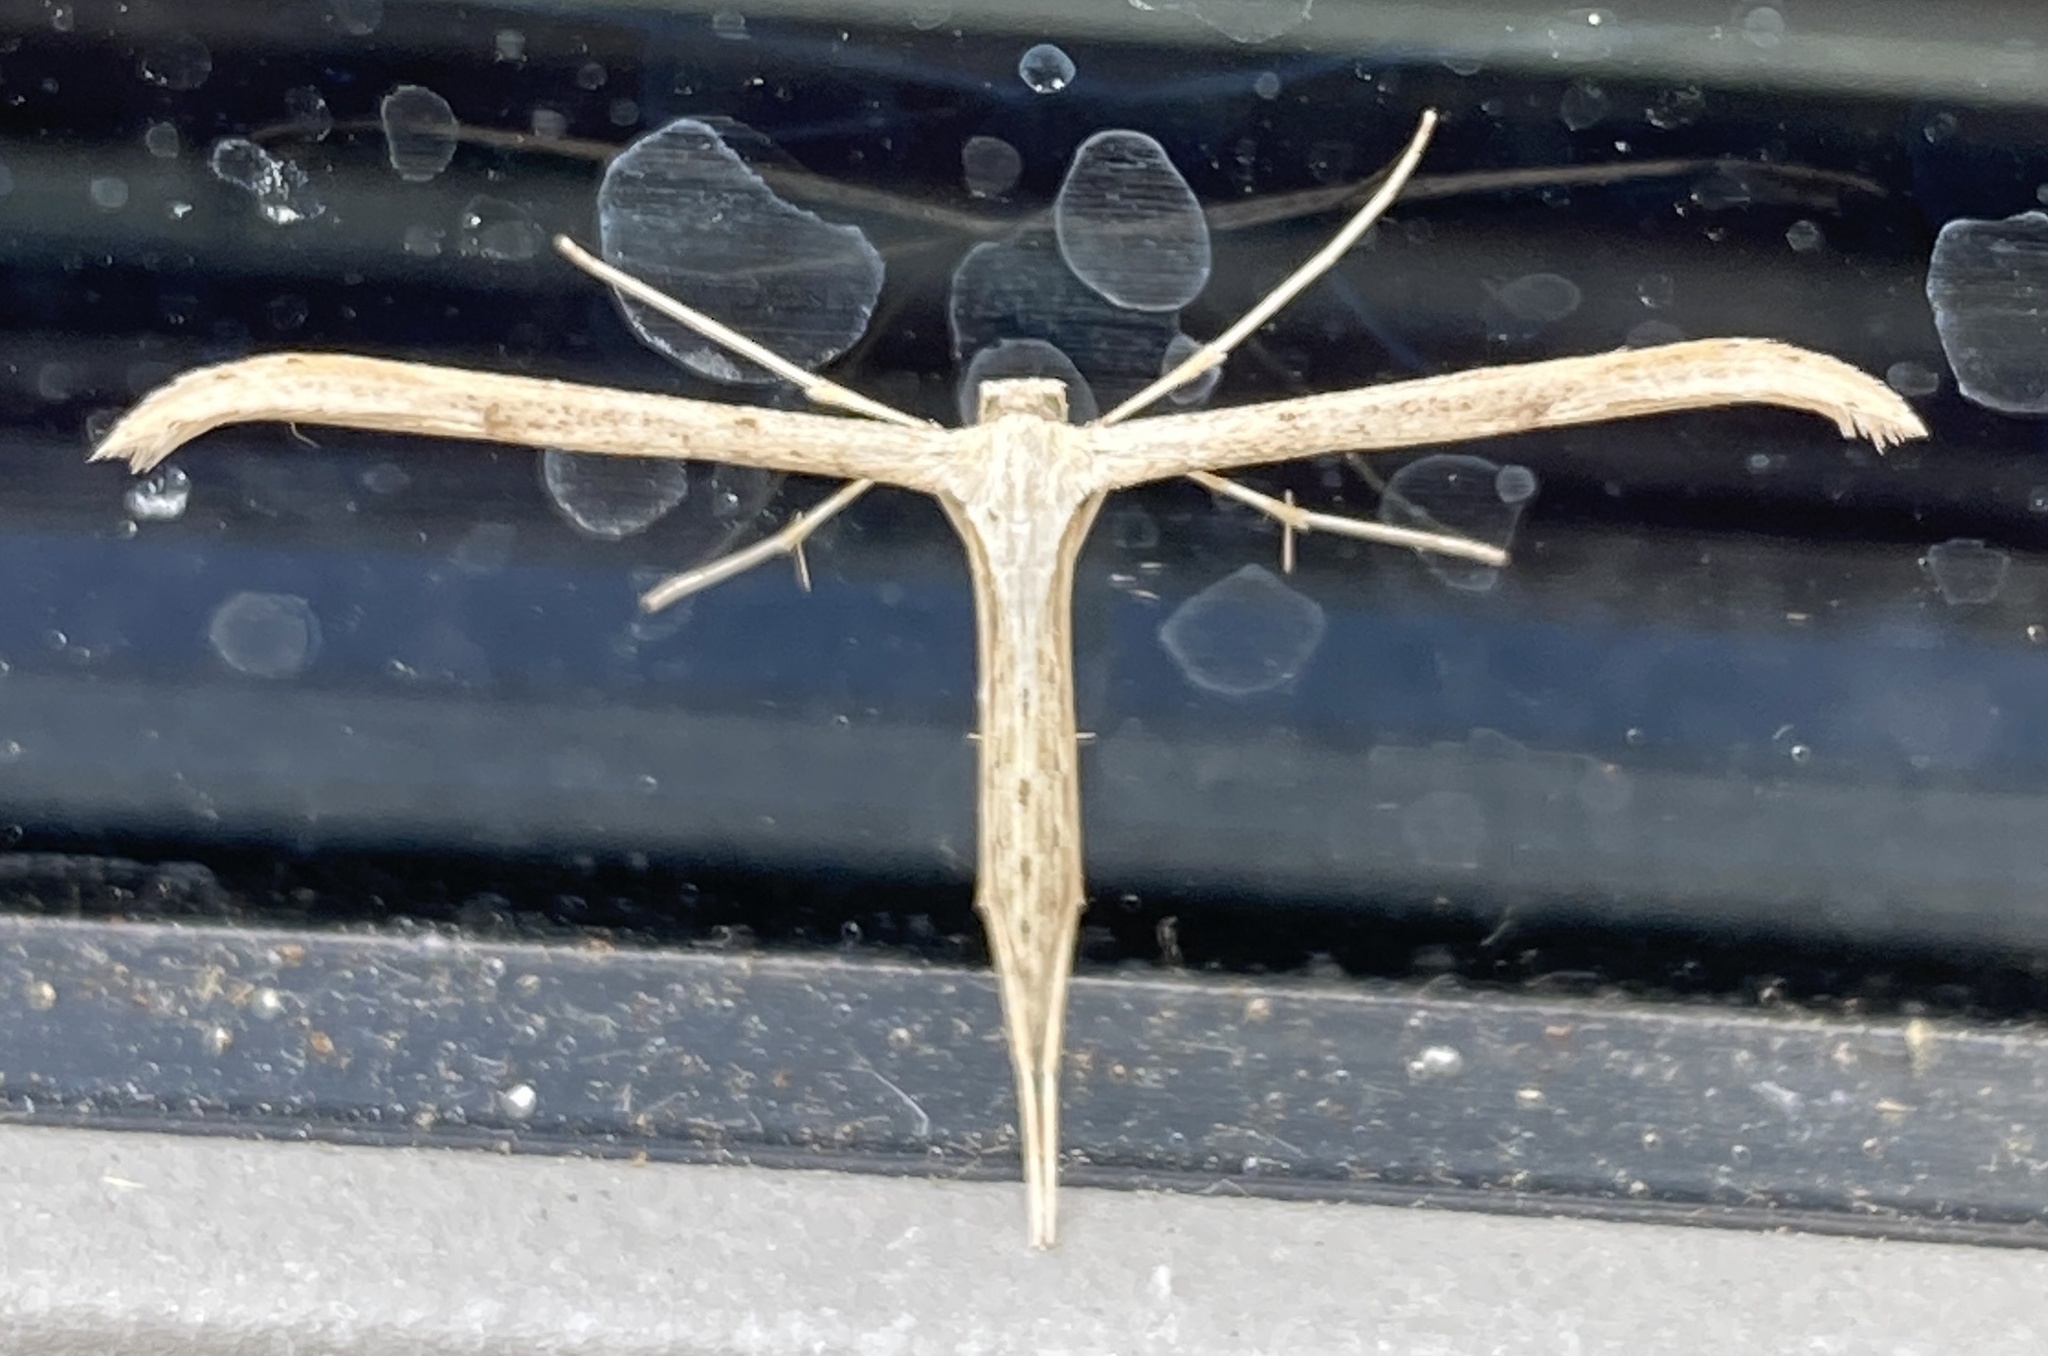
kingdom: Animalia
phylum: Arthropoda
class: Insecta
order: Lepidoptera
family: Pterophoridae
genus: Emmelina
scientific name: Emmelina monodactyla
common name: Common plume
